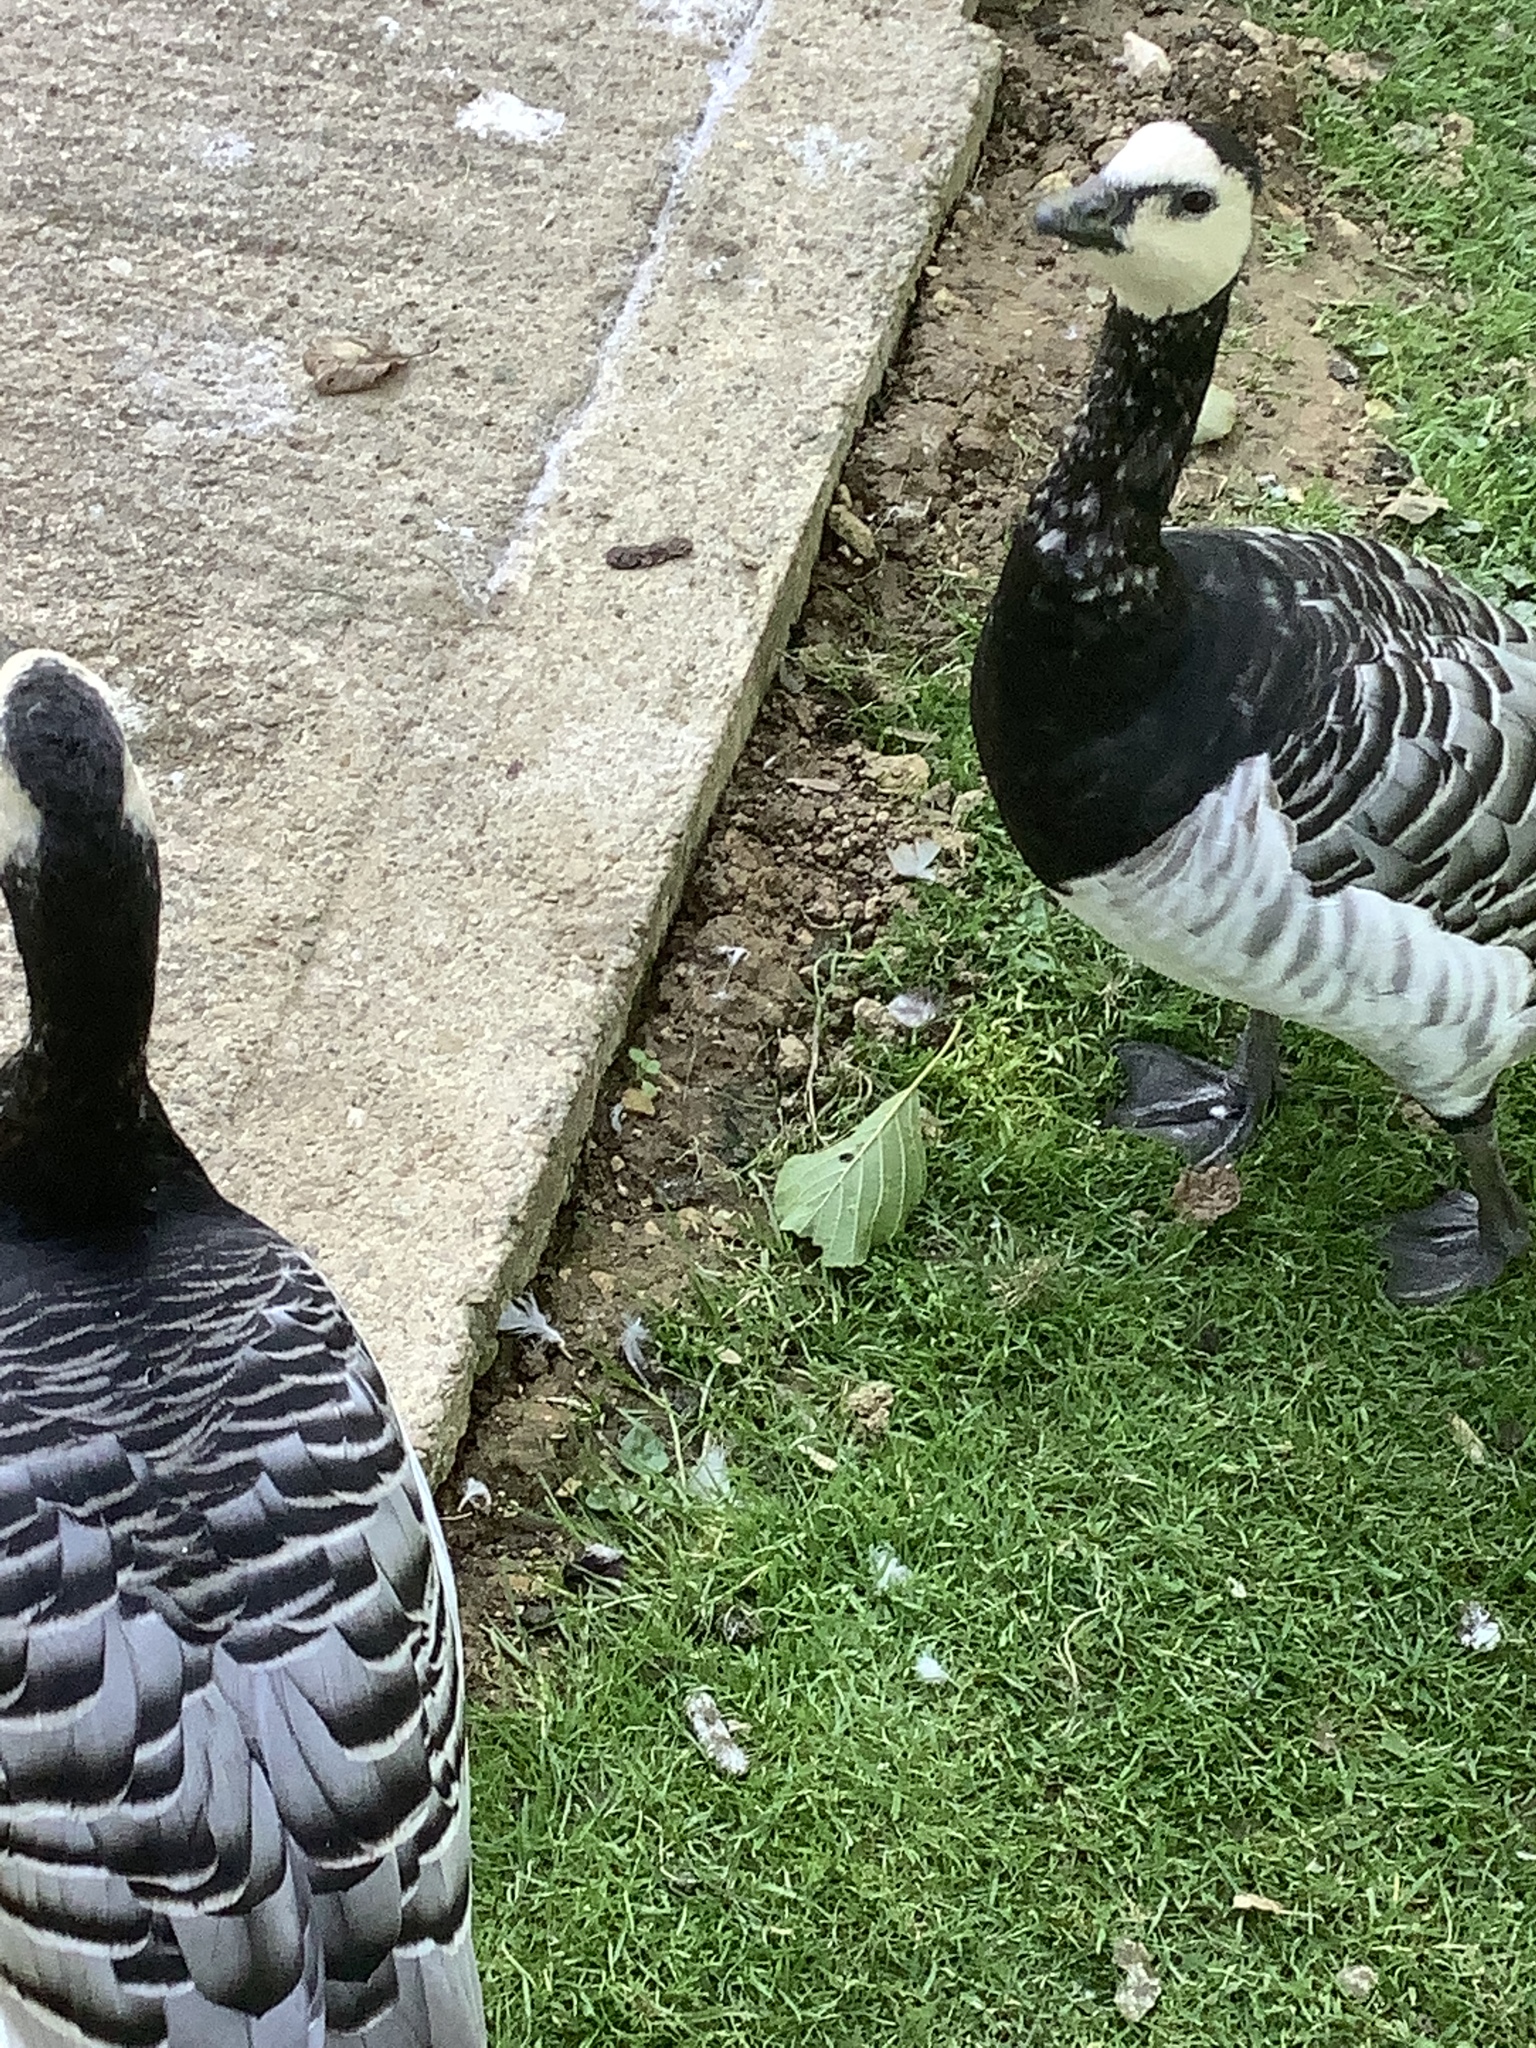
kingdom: Animalia
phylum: Chordata
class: Aves
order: Anseriformes
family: Anatidae
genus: Branta
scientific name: Branta leucopsis
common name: Barnacle goose
